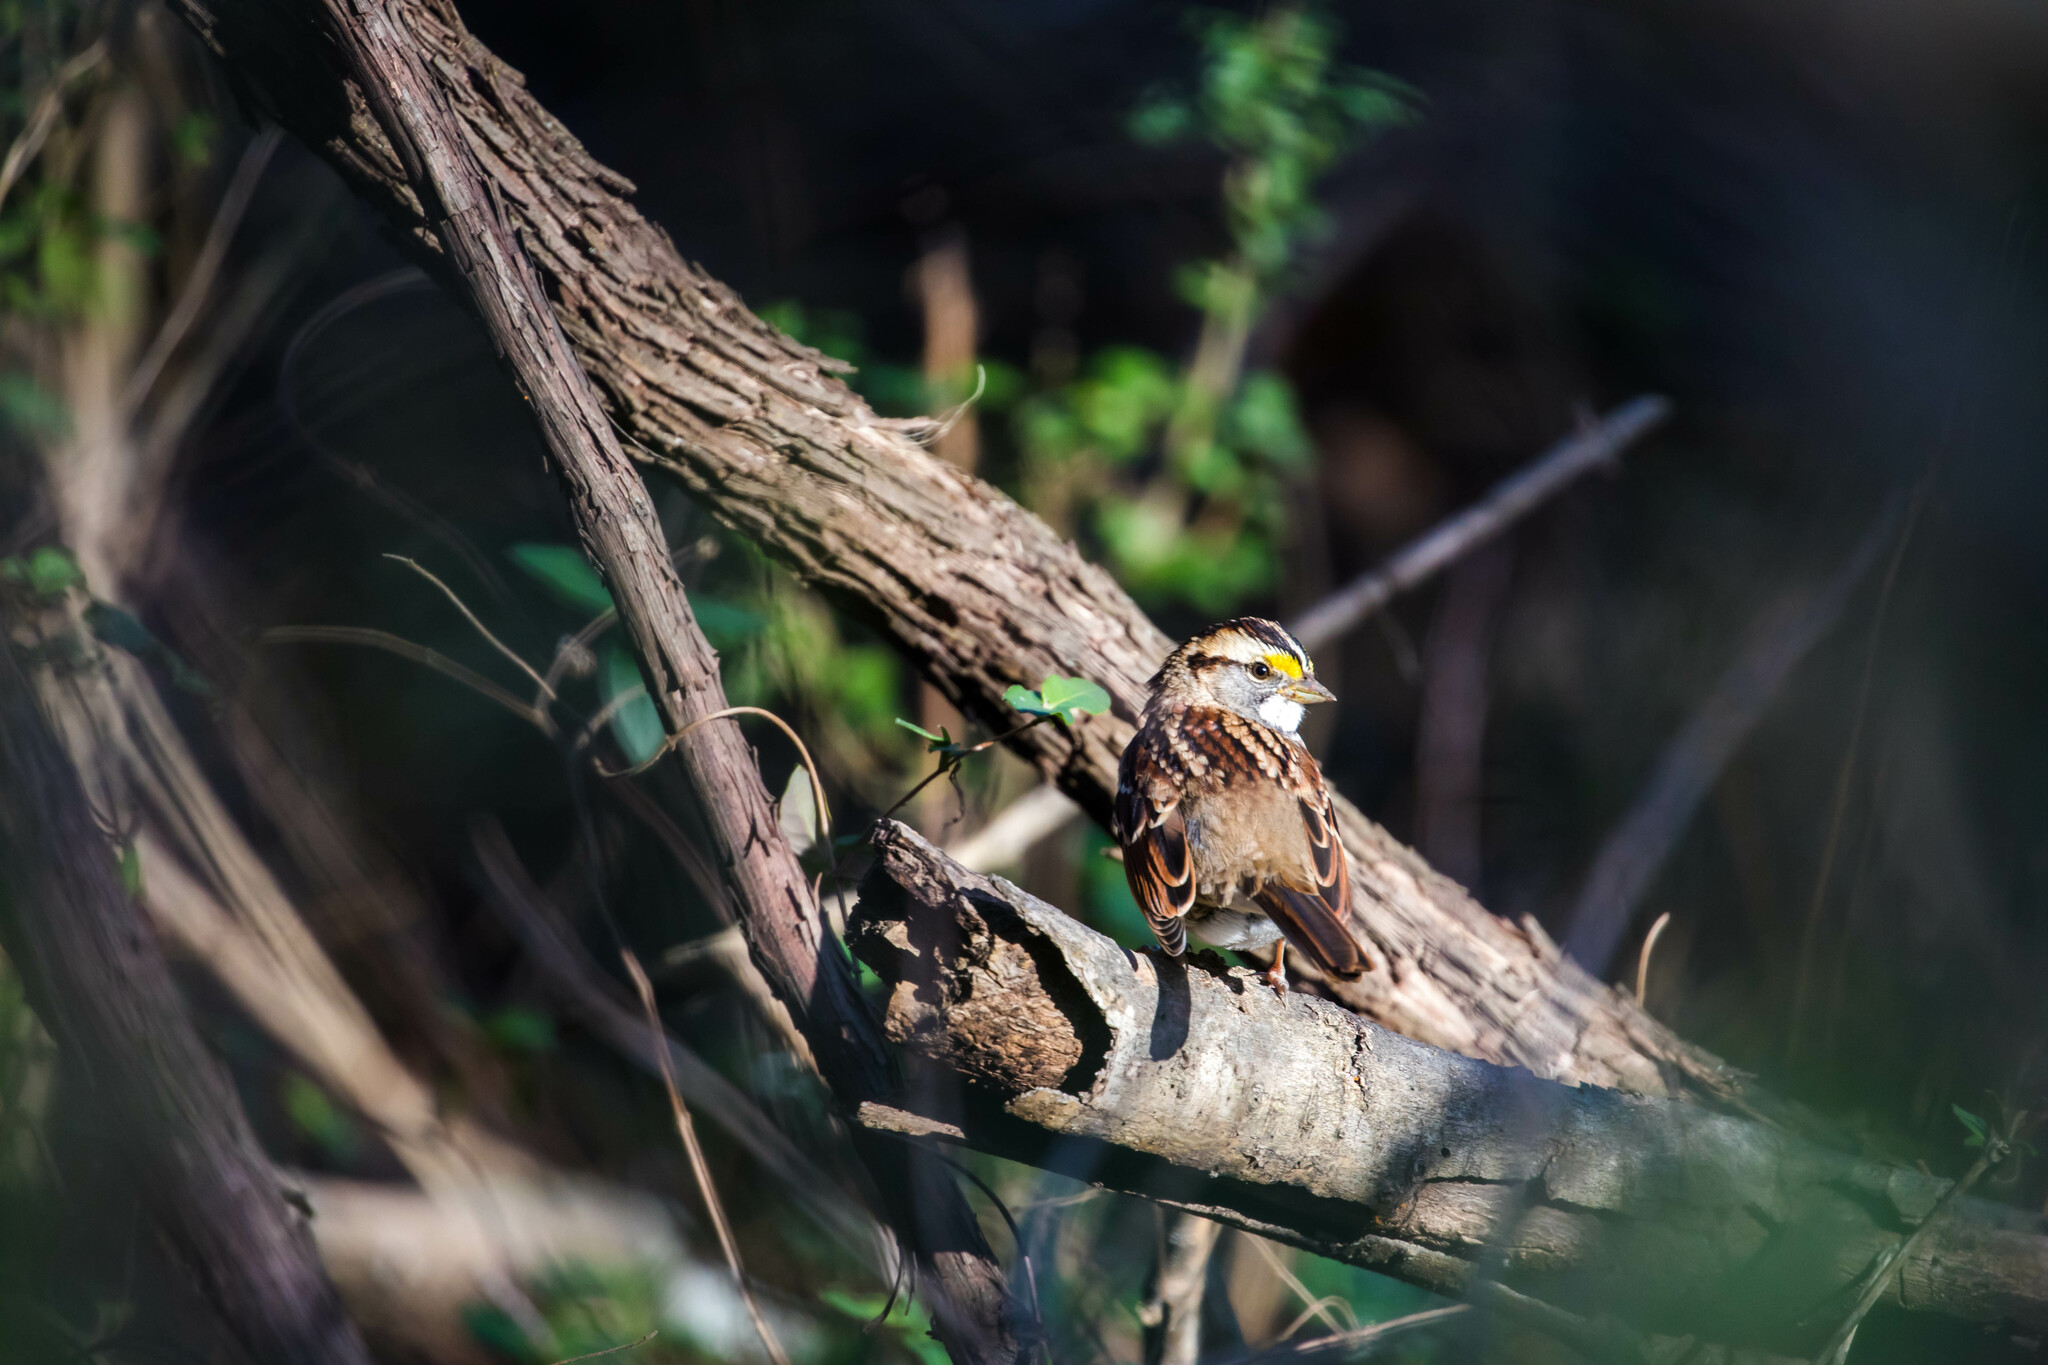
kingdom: Animalia
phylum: Chordata
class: Aves
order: Passeriformes
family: Passerellidae
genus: Zonotrichia
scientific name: Zonotrichia albicollis
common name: White-throated sparrow
